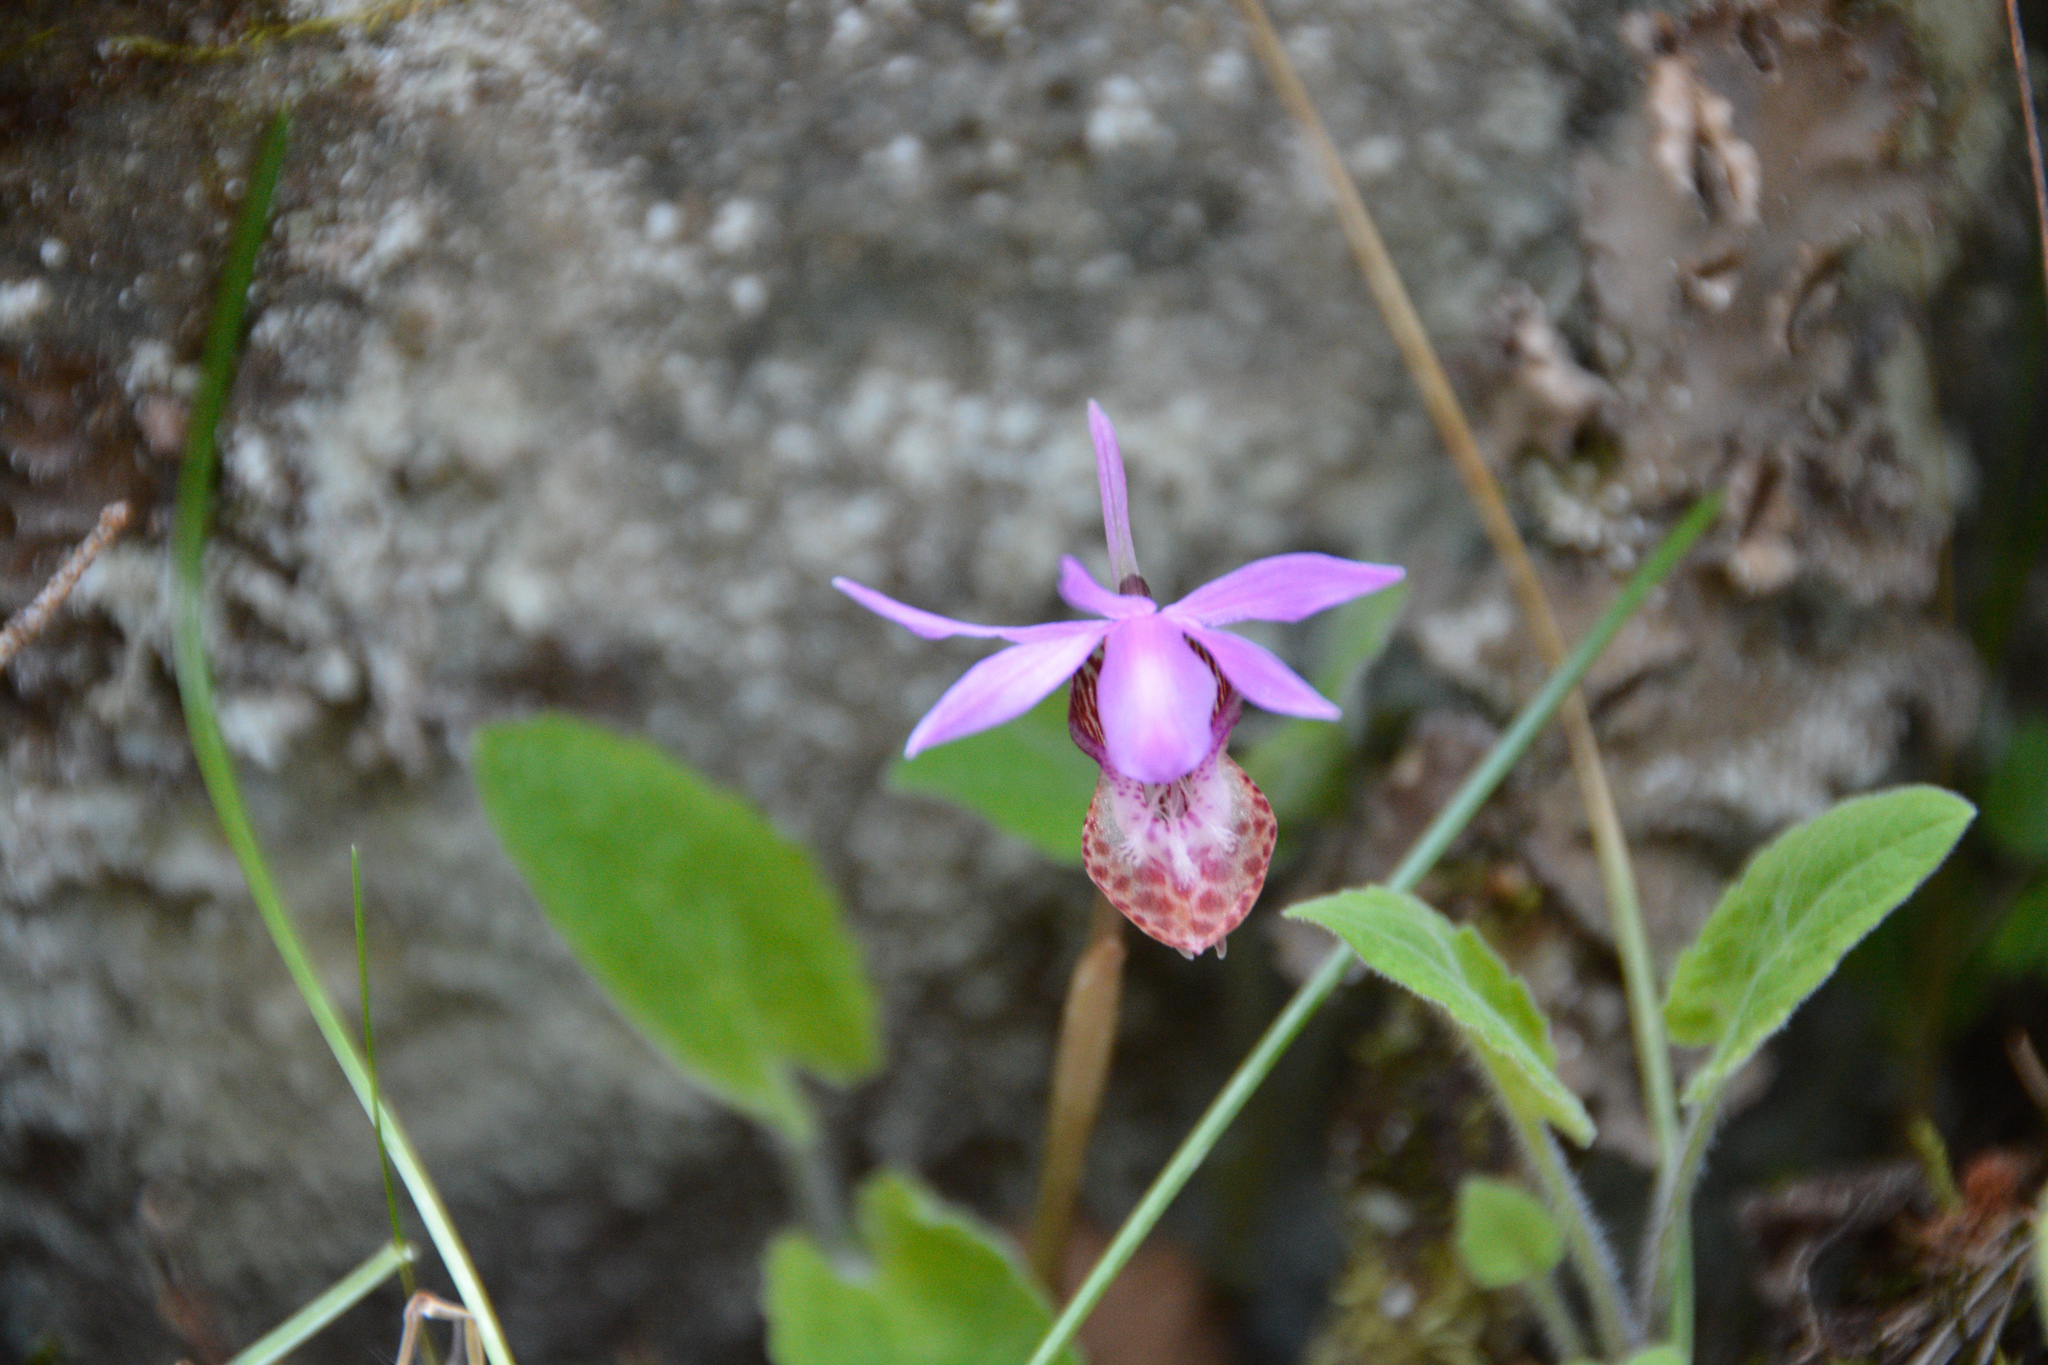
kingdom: Plantae
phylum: Tracheophyta
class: Liliopsida
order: Asparagales
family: Orchidaceae
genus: Calypso
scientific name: Calypso bulbosa
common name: Calypso
